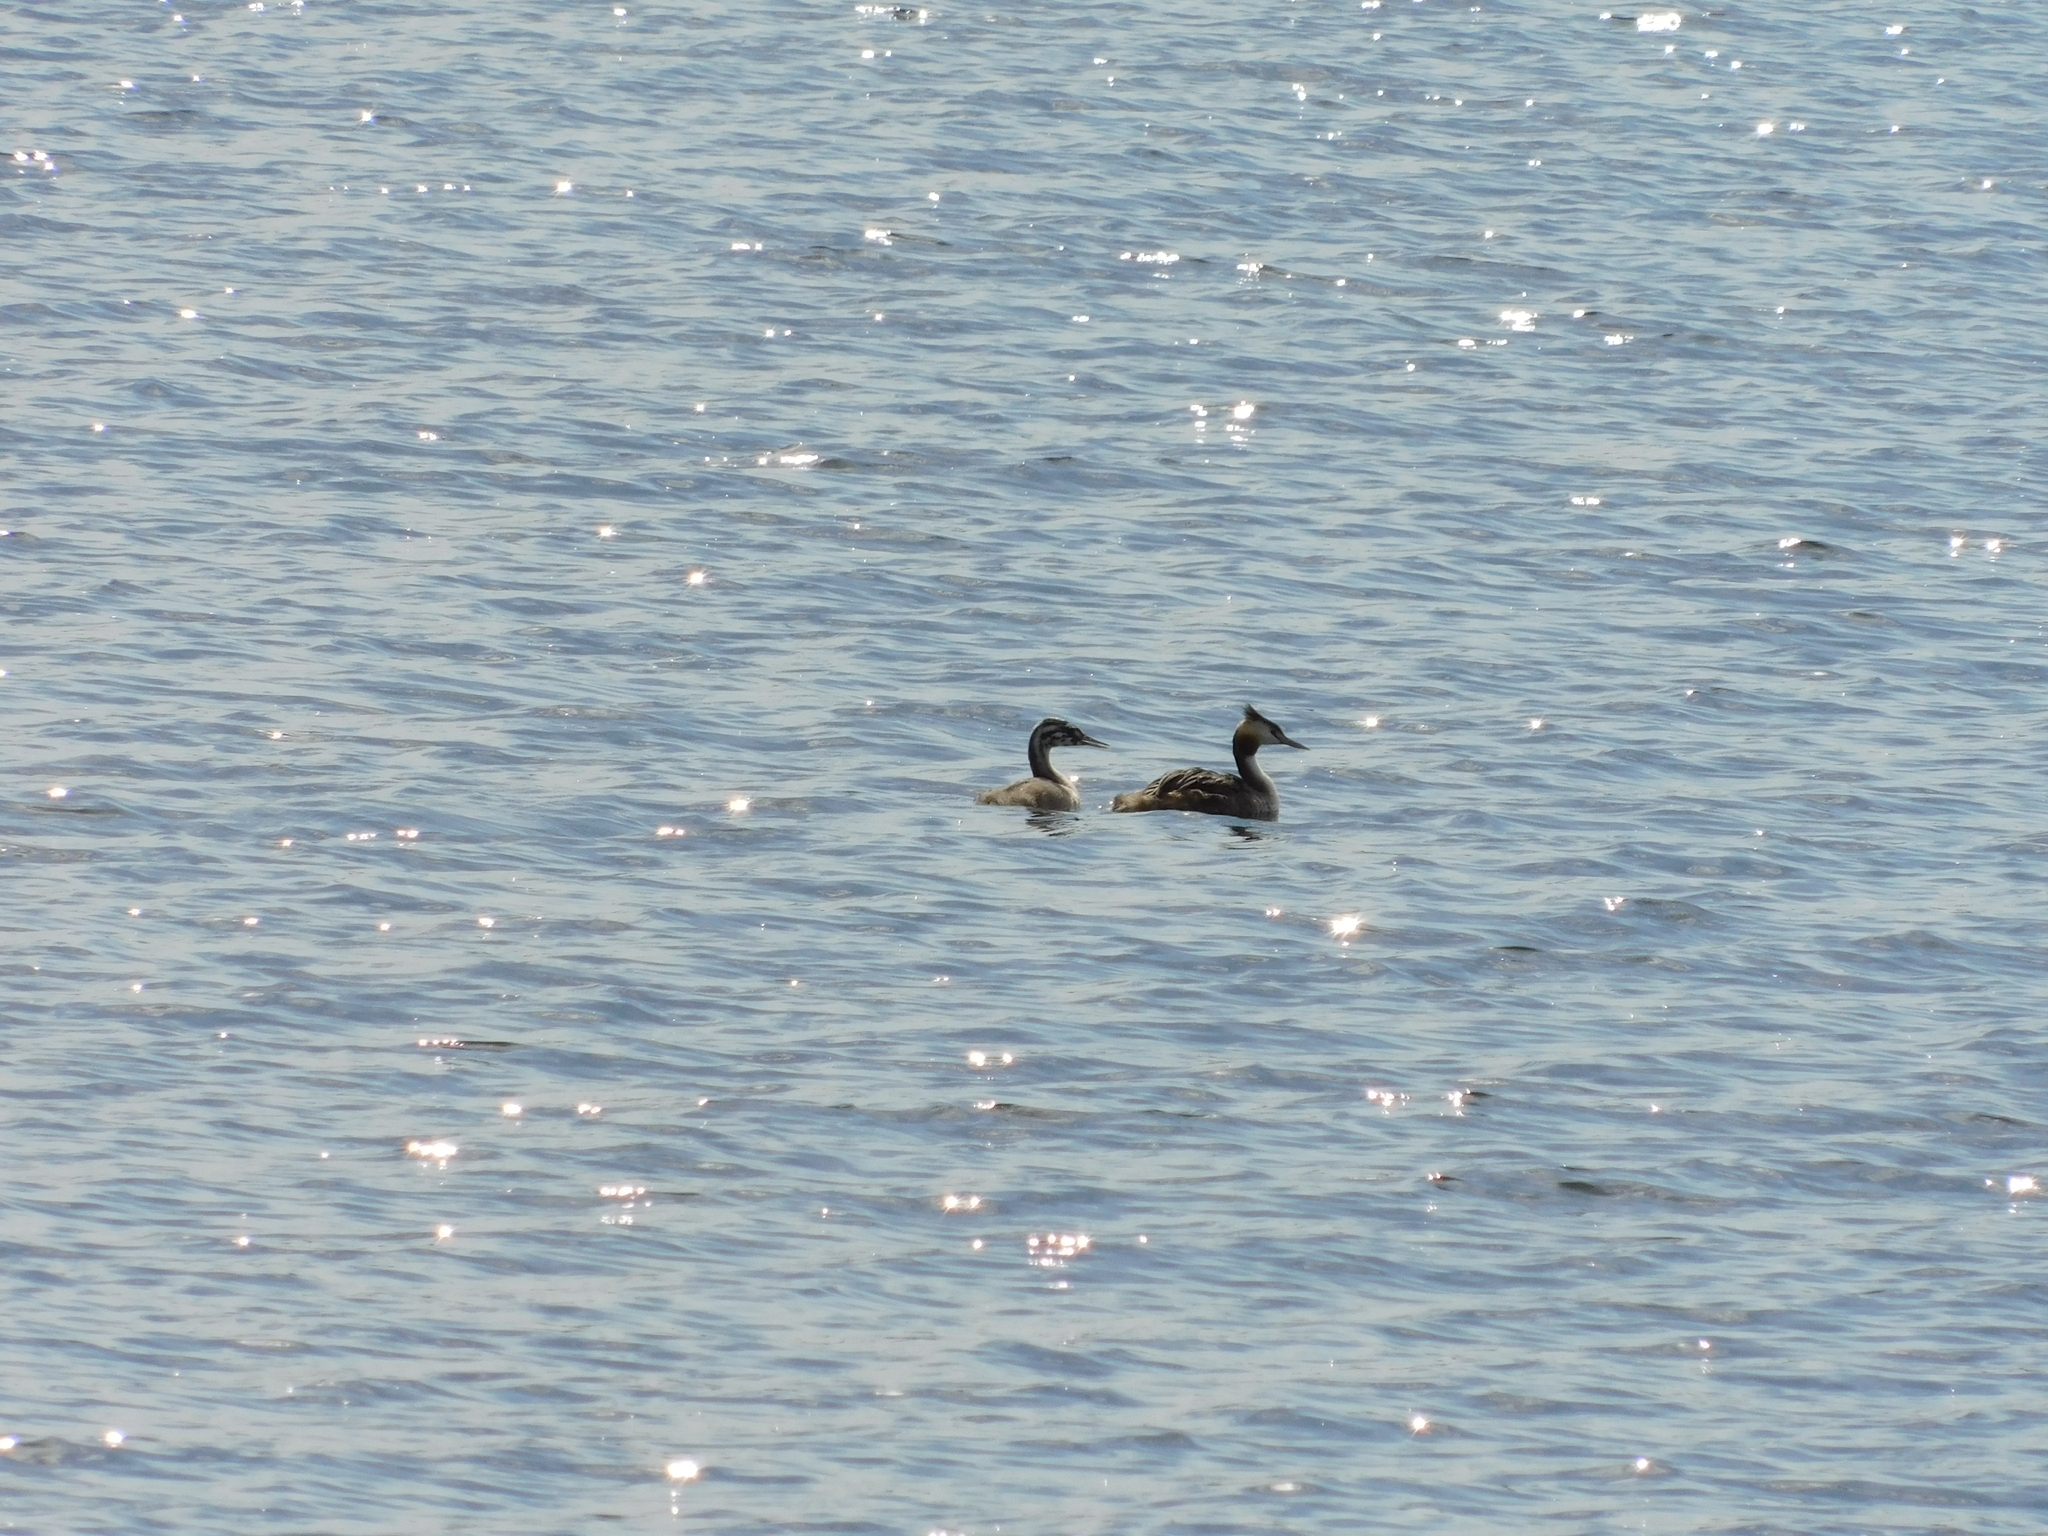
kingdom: Animalia
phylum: Chordata
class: Aves
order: Podicipediformes
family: Podicipedidae
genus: Podiceps
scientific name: Podiceps cristatus
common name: Great crested grebe
